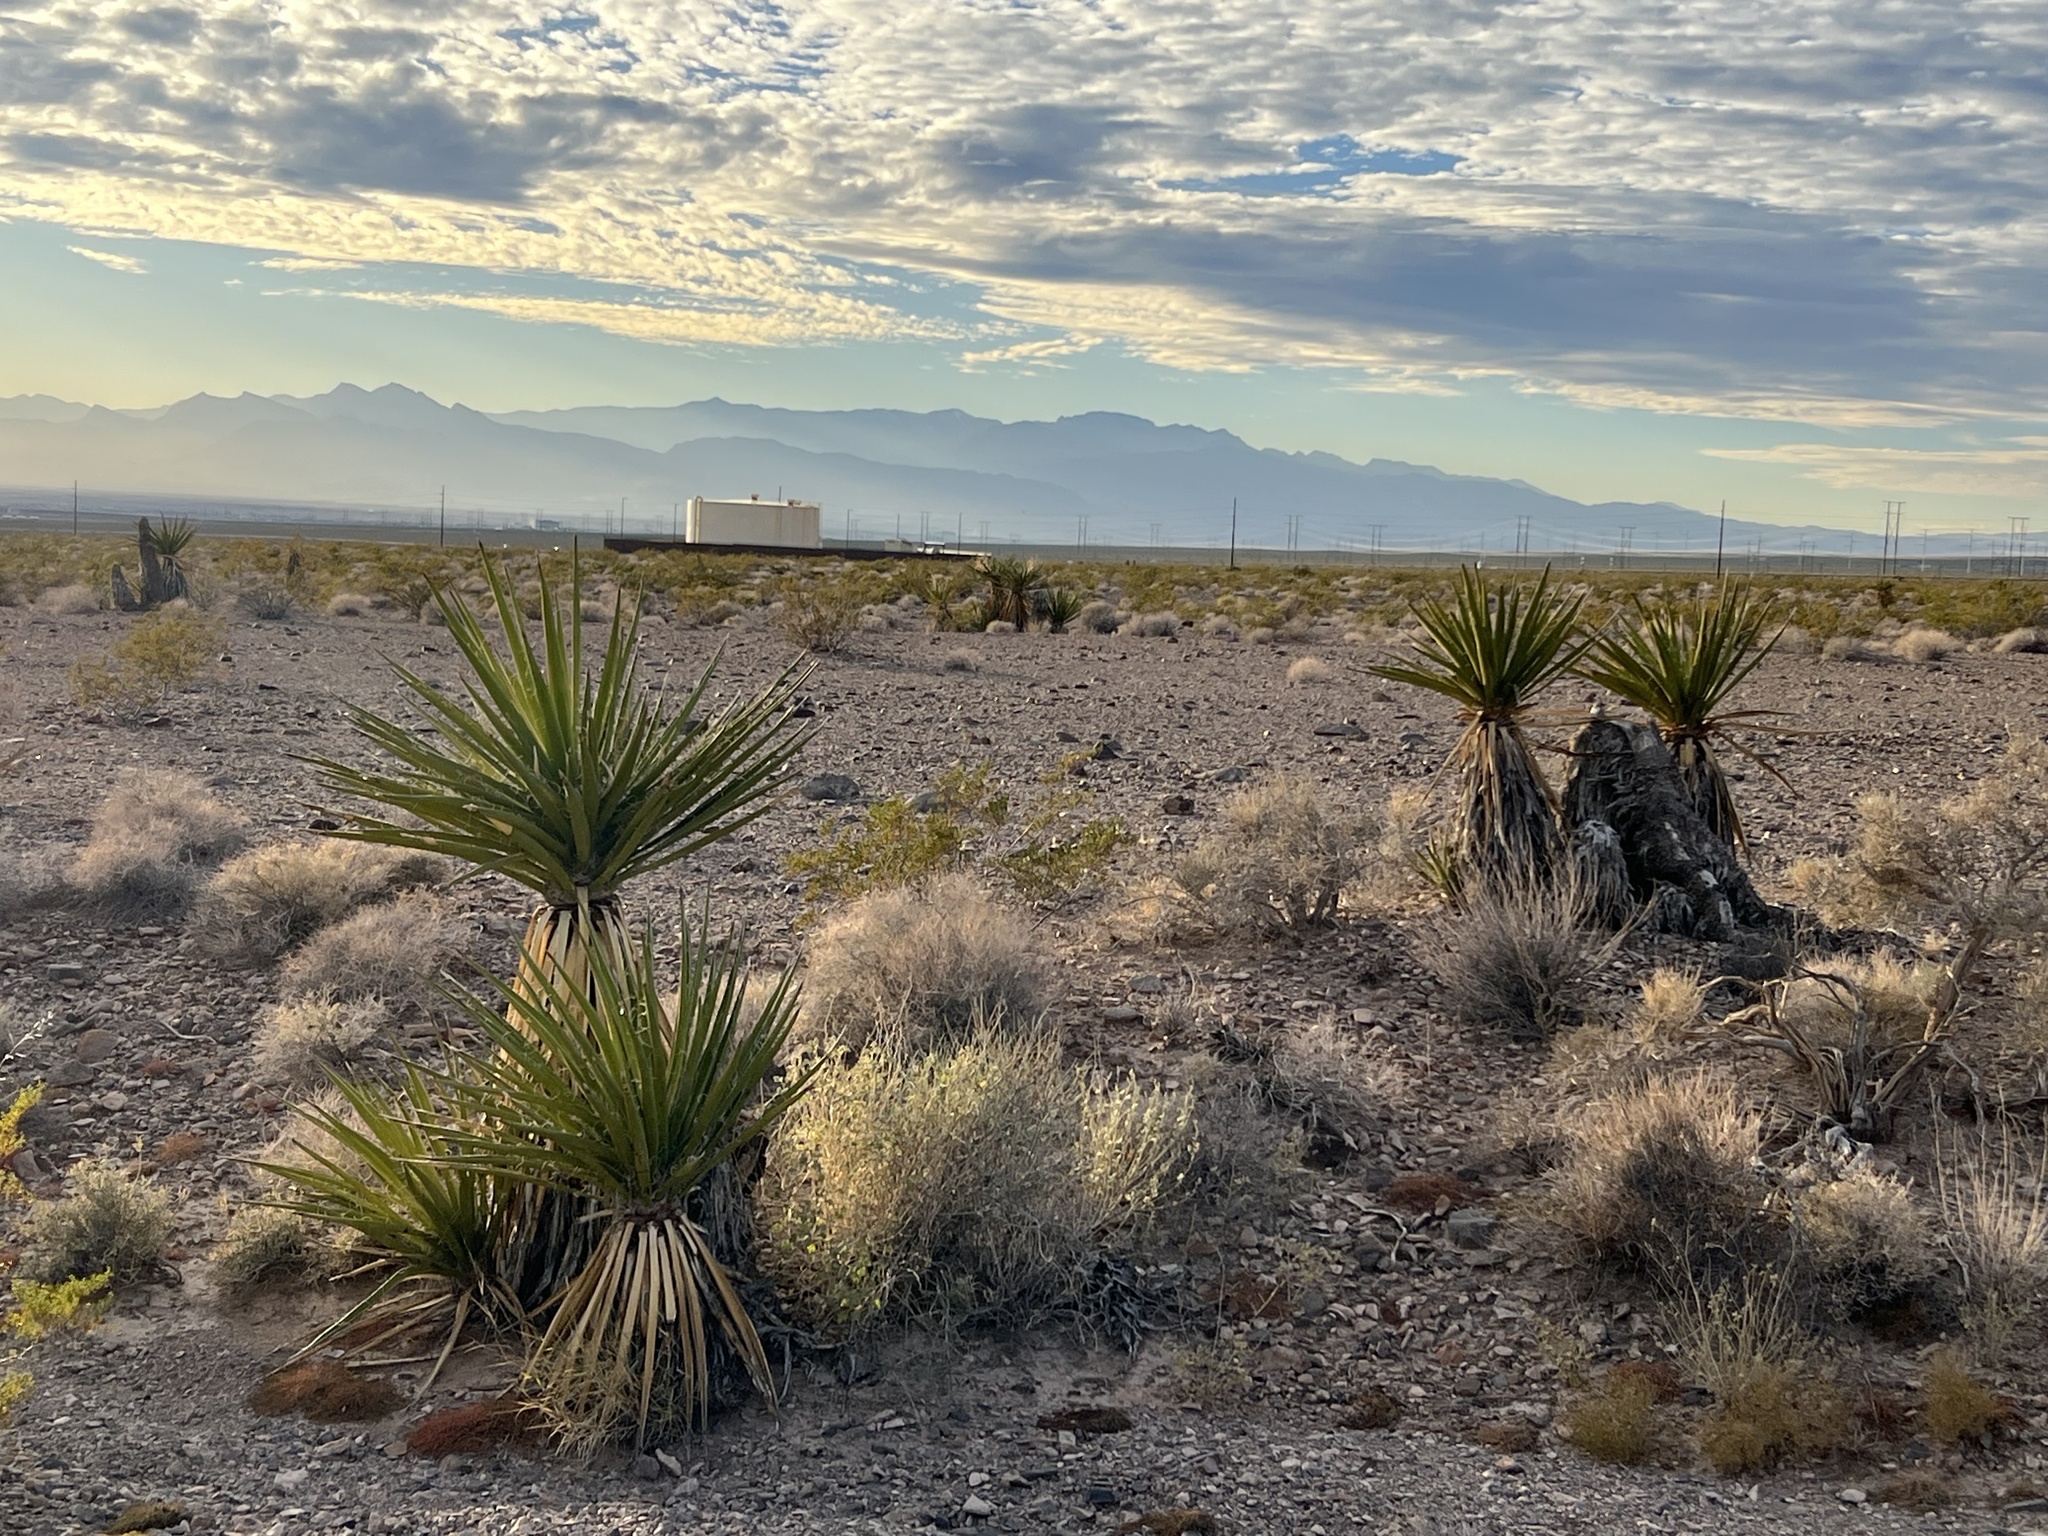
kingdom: Plantae
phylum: Tracheophyta
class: Liliopsida
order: Asparagales
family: Asparagaceae
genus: Yucca
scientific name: Yucca schidigera
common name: Mojave yucca
